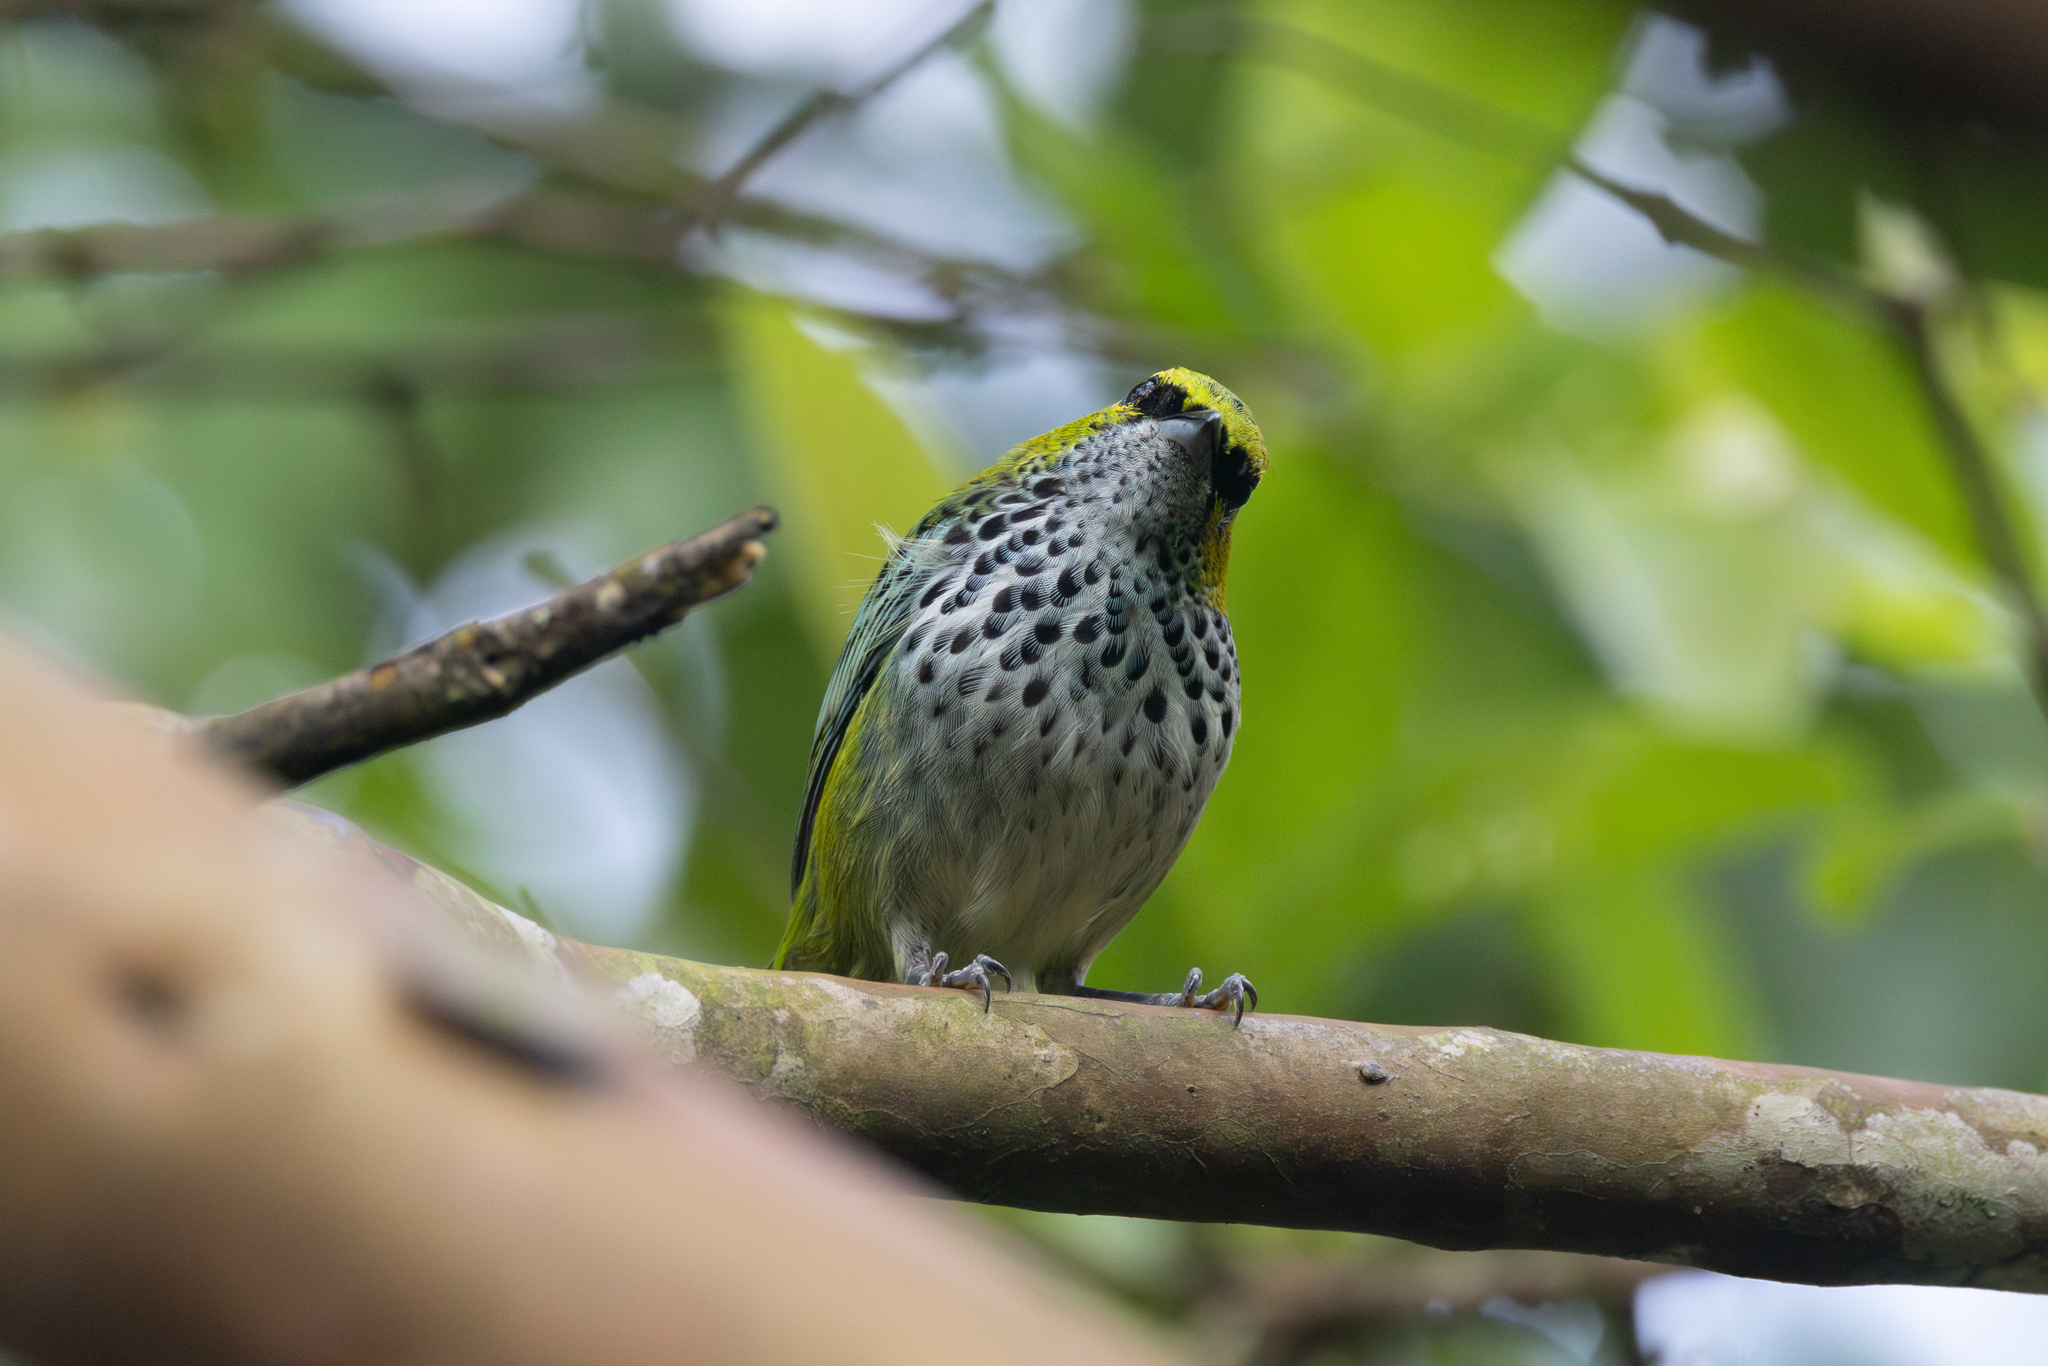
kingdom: Animalia
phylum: Chordata
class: Aves
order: Passeriformes
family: Thraupidae
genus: Ixothraupis
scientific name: Ixothraupis guttata
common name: Speckled tanager
